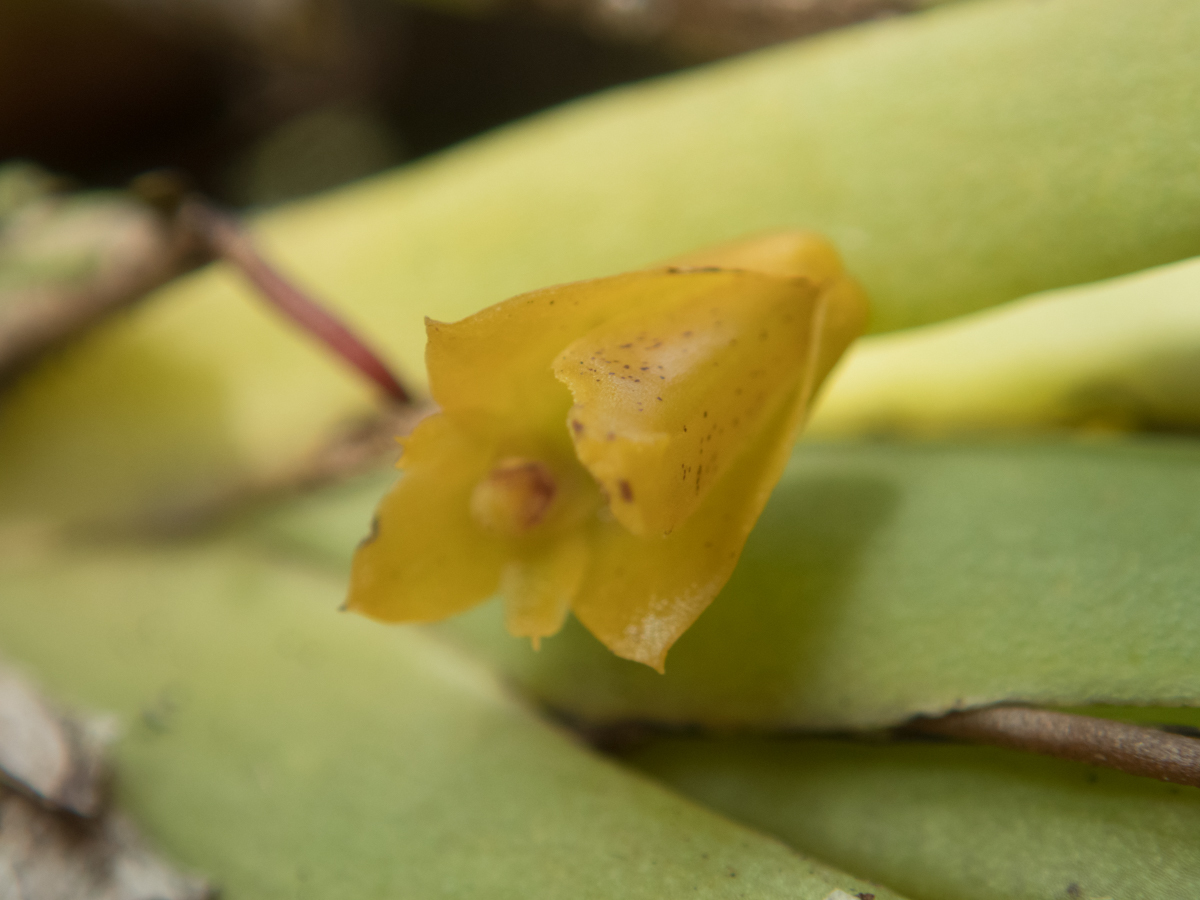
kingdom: Plantae
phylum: Tracheophyta
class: Liliopsida
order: Asparagales
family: Orchidaceae
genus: Oxystophyllum
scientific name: Oxystophyllum carnosum
